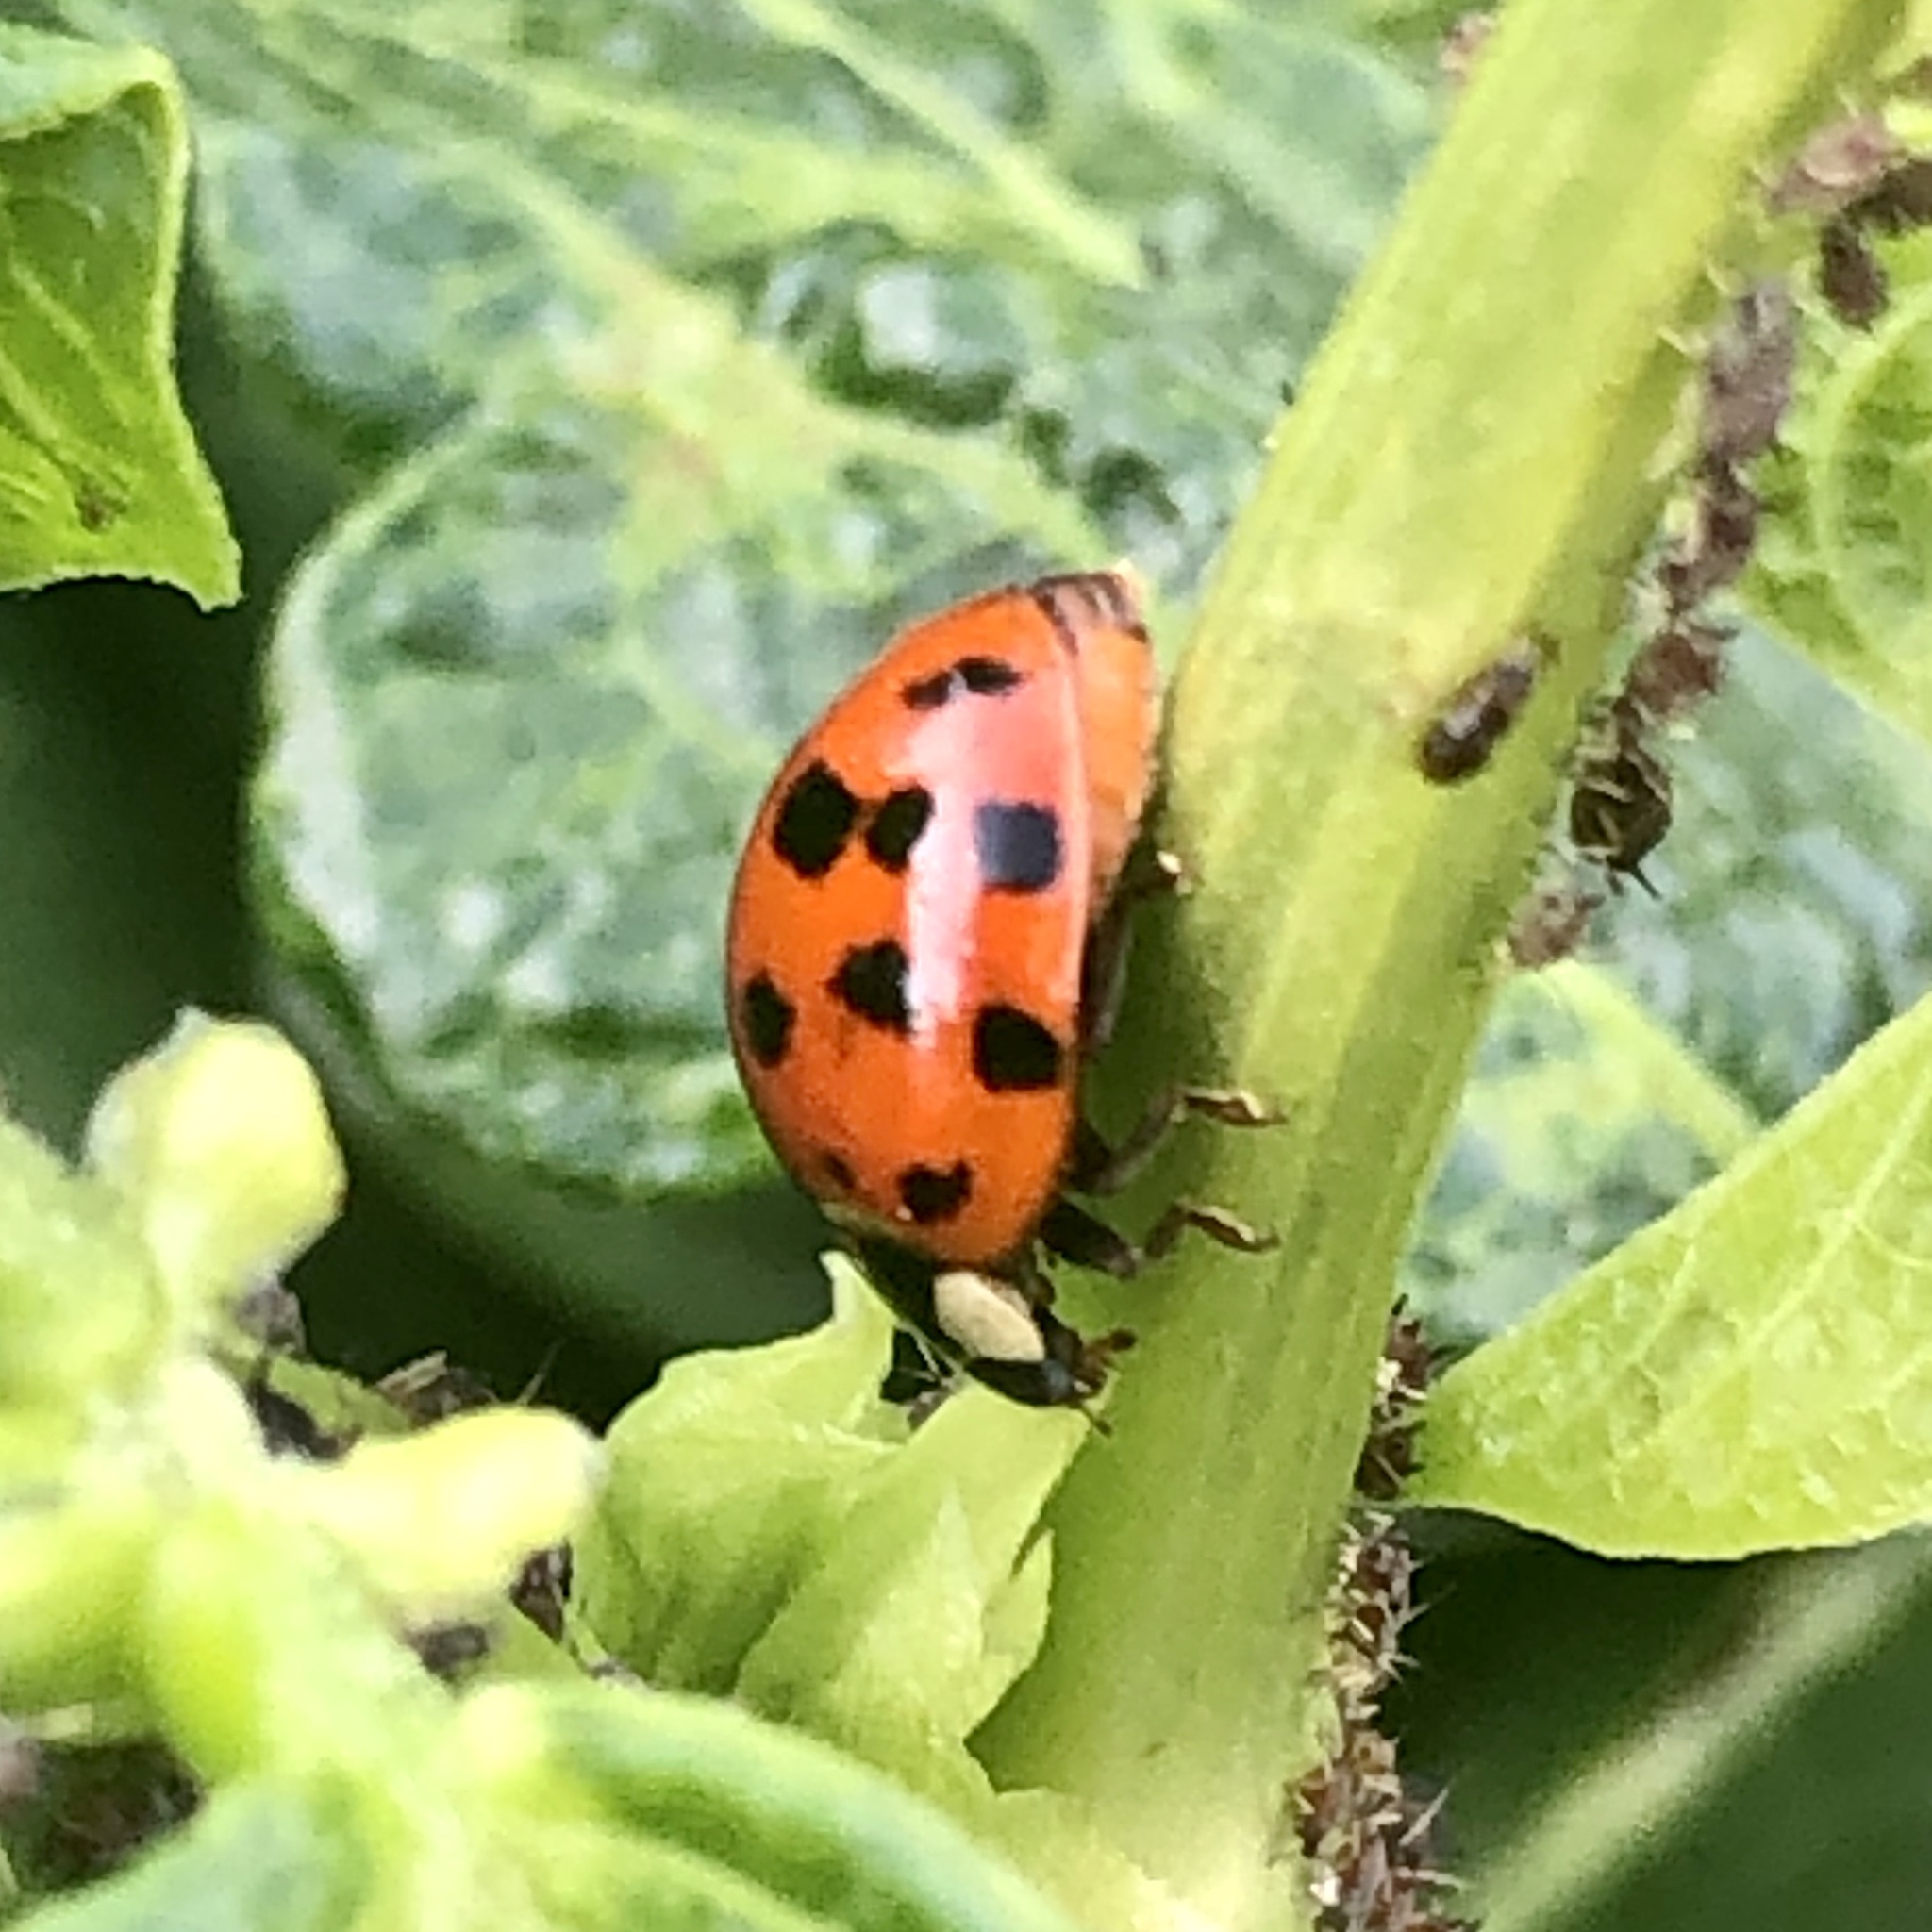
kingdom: Animalia
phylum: Arthropoda
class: Insecta
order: Coleoptera
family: Coccinellidae
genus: Harmonia
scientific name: Harmonia axyridis
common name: Harlequin ladybird
